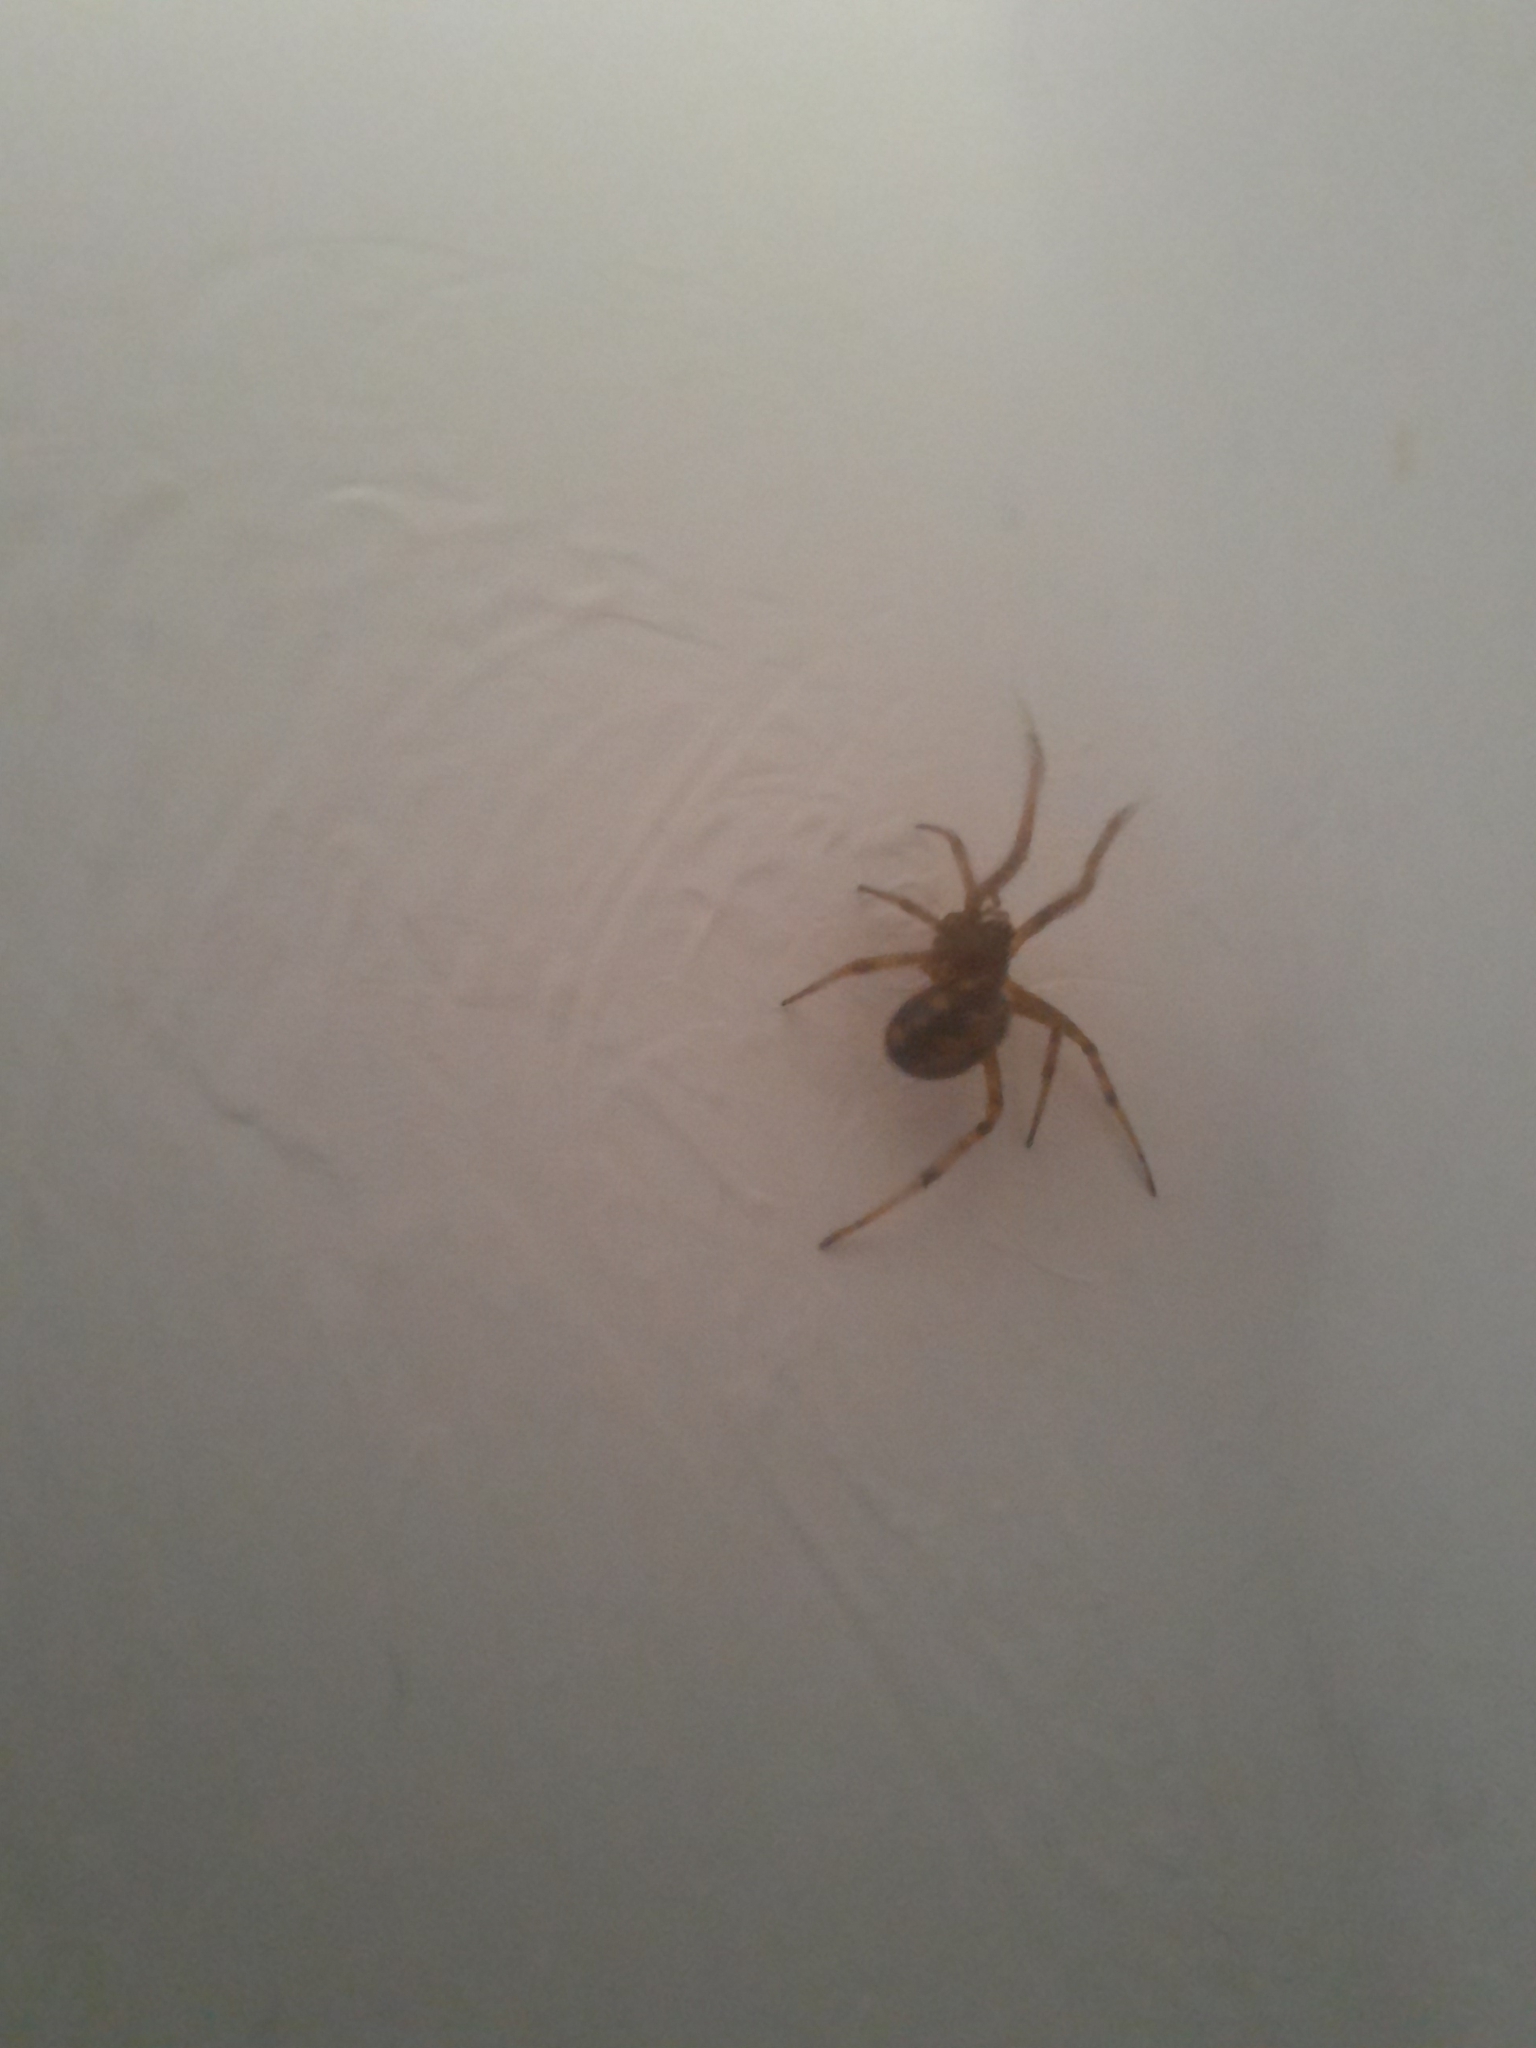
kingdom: Animalia
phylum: Arthropoda
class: Arachnida
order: Araneae
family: Theridiidae
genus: Steatoda
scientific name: Steatoda triangulosa
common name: Triangulate bud spider
